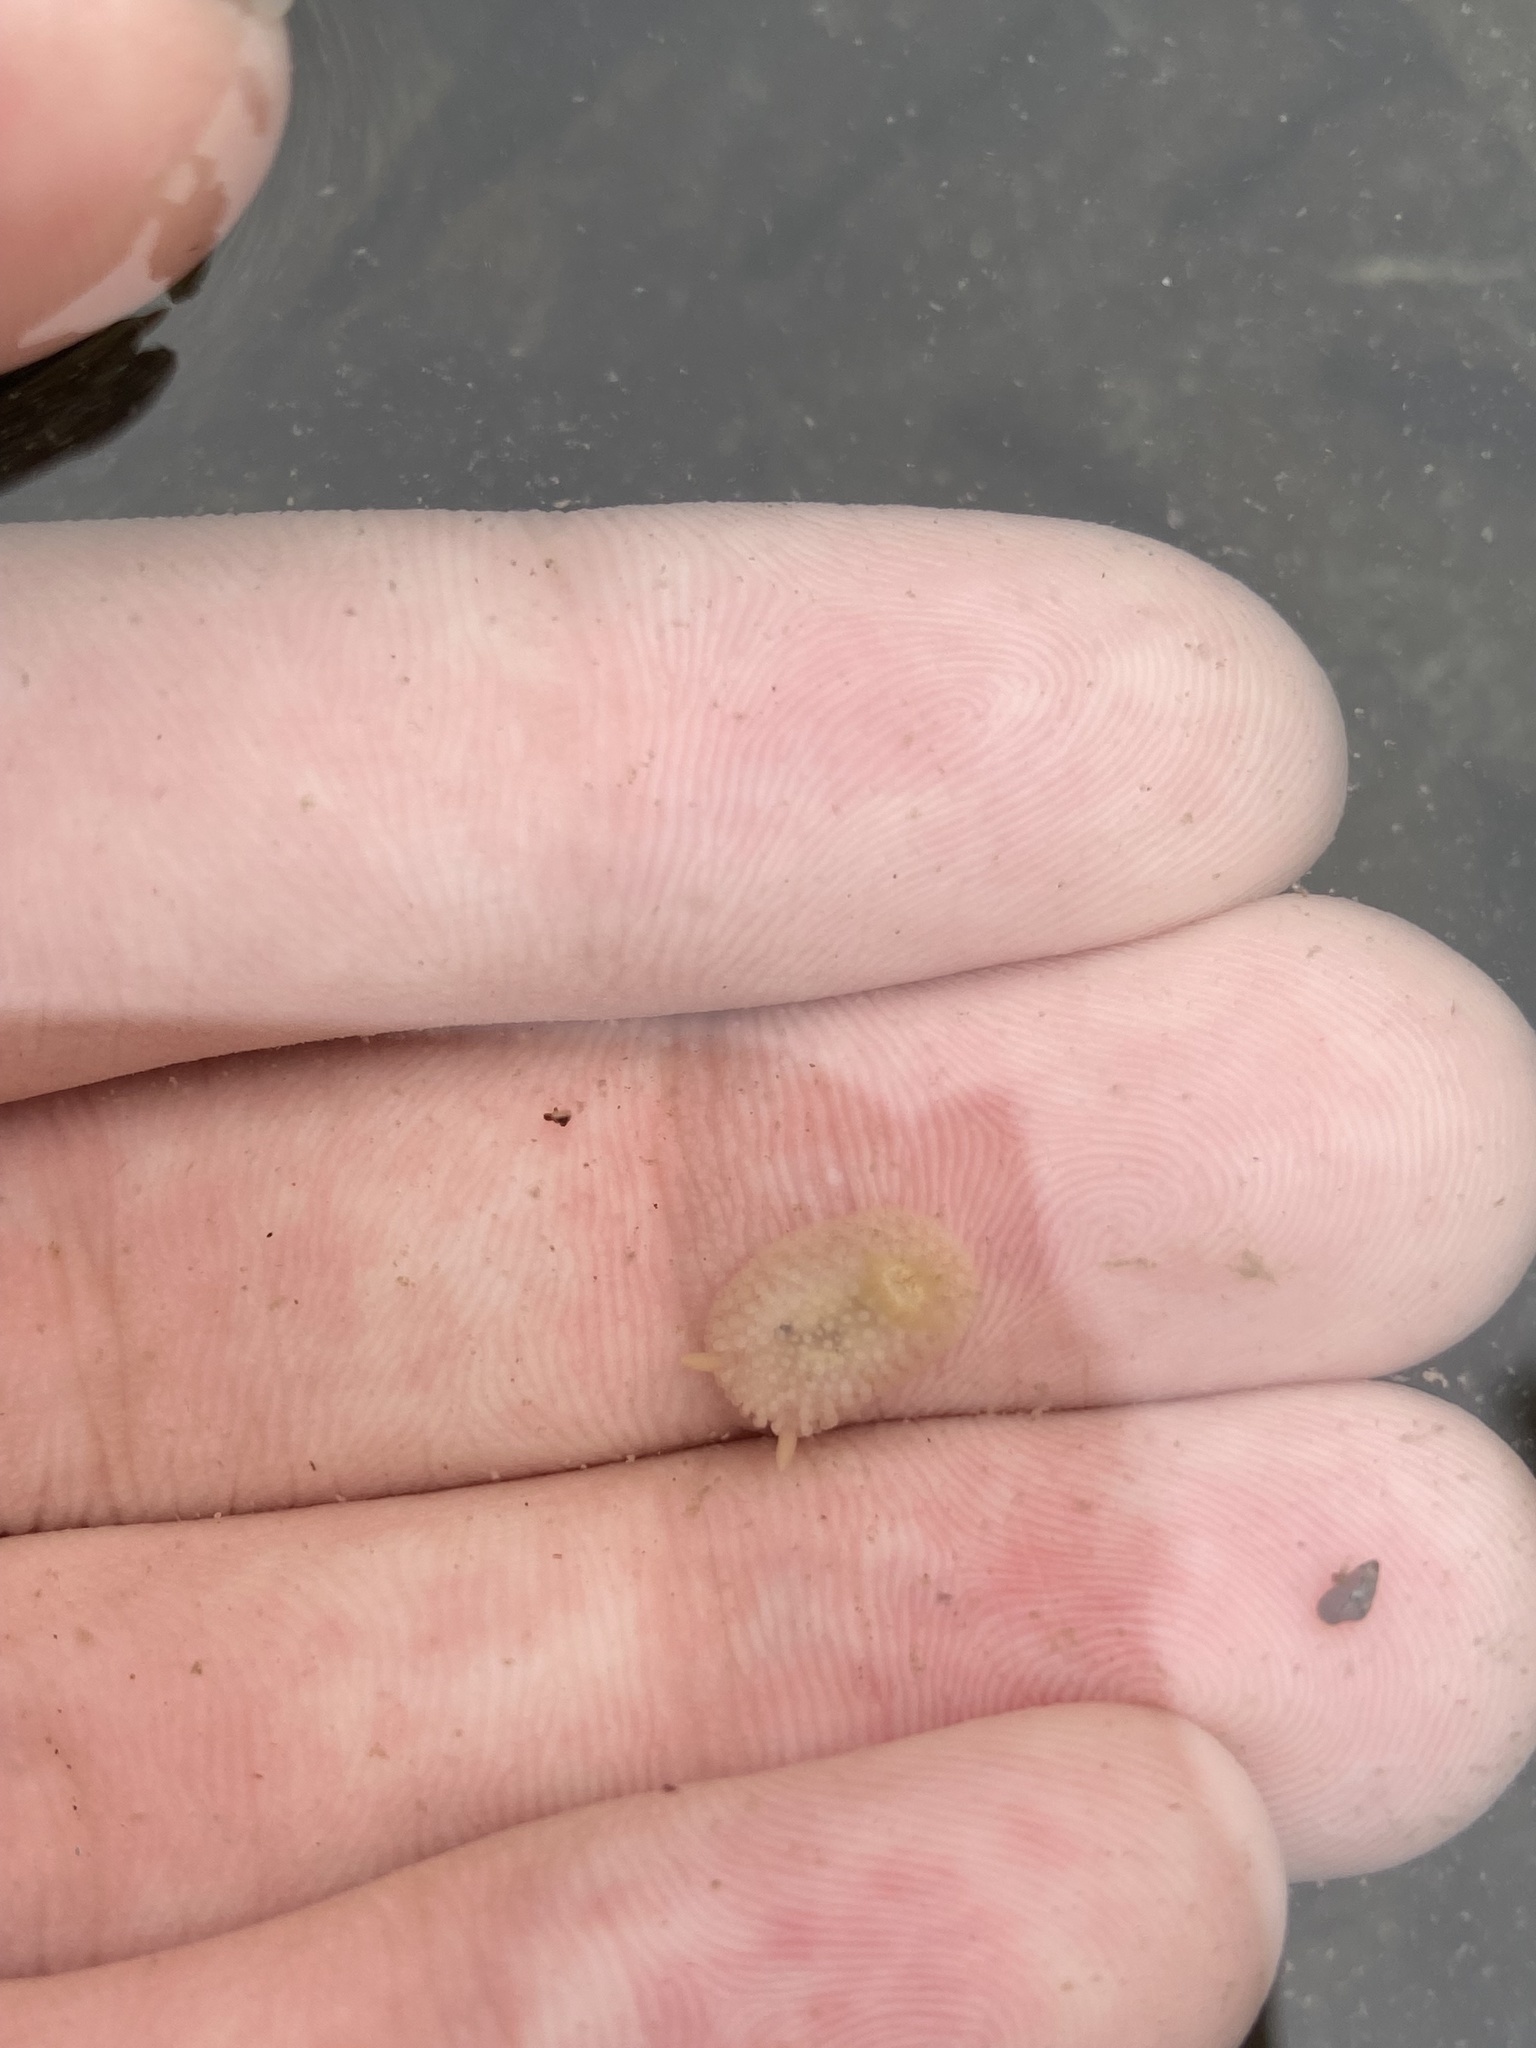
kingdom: Animalia
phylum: Mollusca
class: Gastropoda
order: Nudibranchia
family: Onchidorididae
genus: Onchidoris
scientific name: Onchidoris muricata
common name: Rough doris
